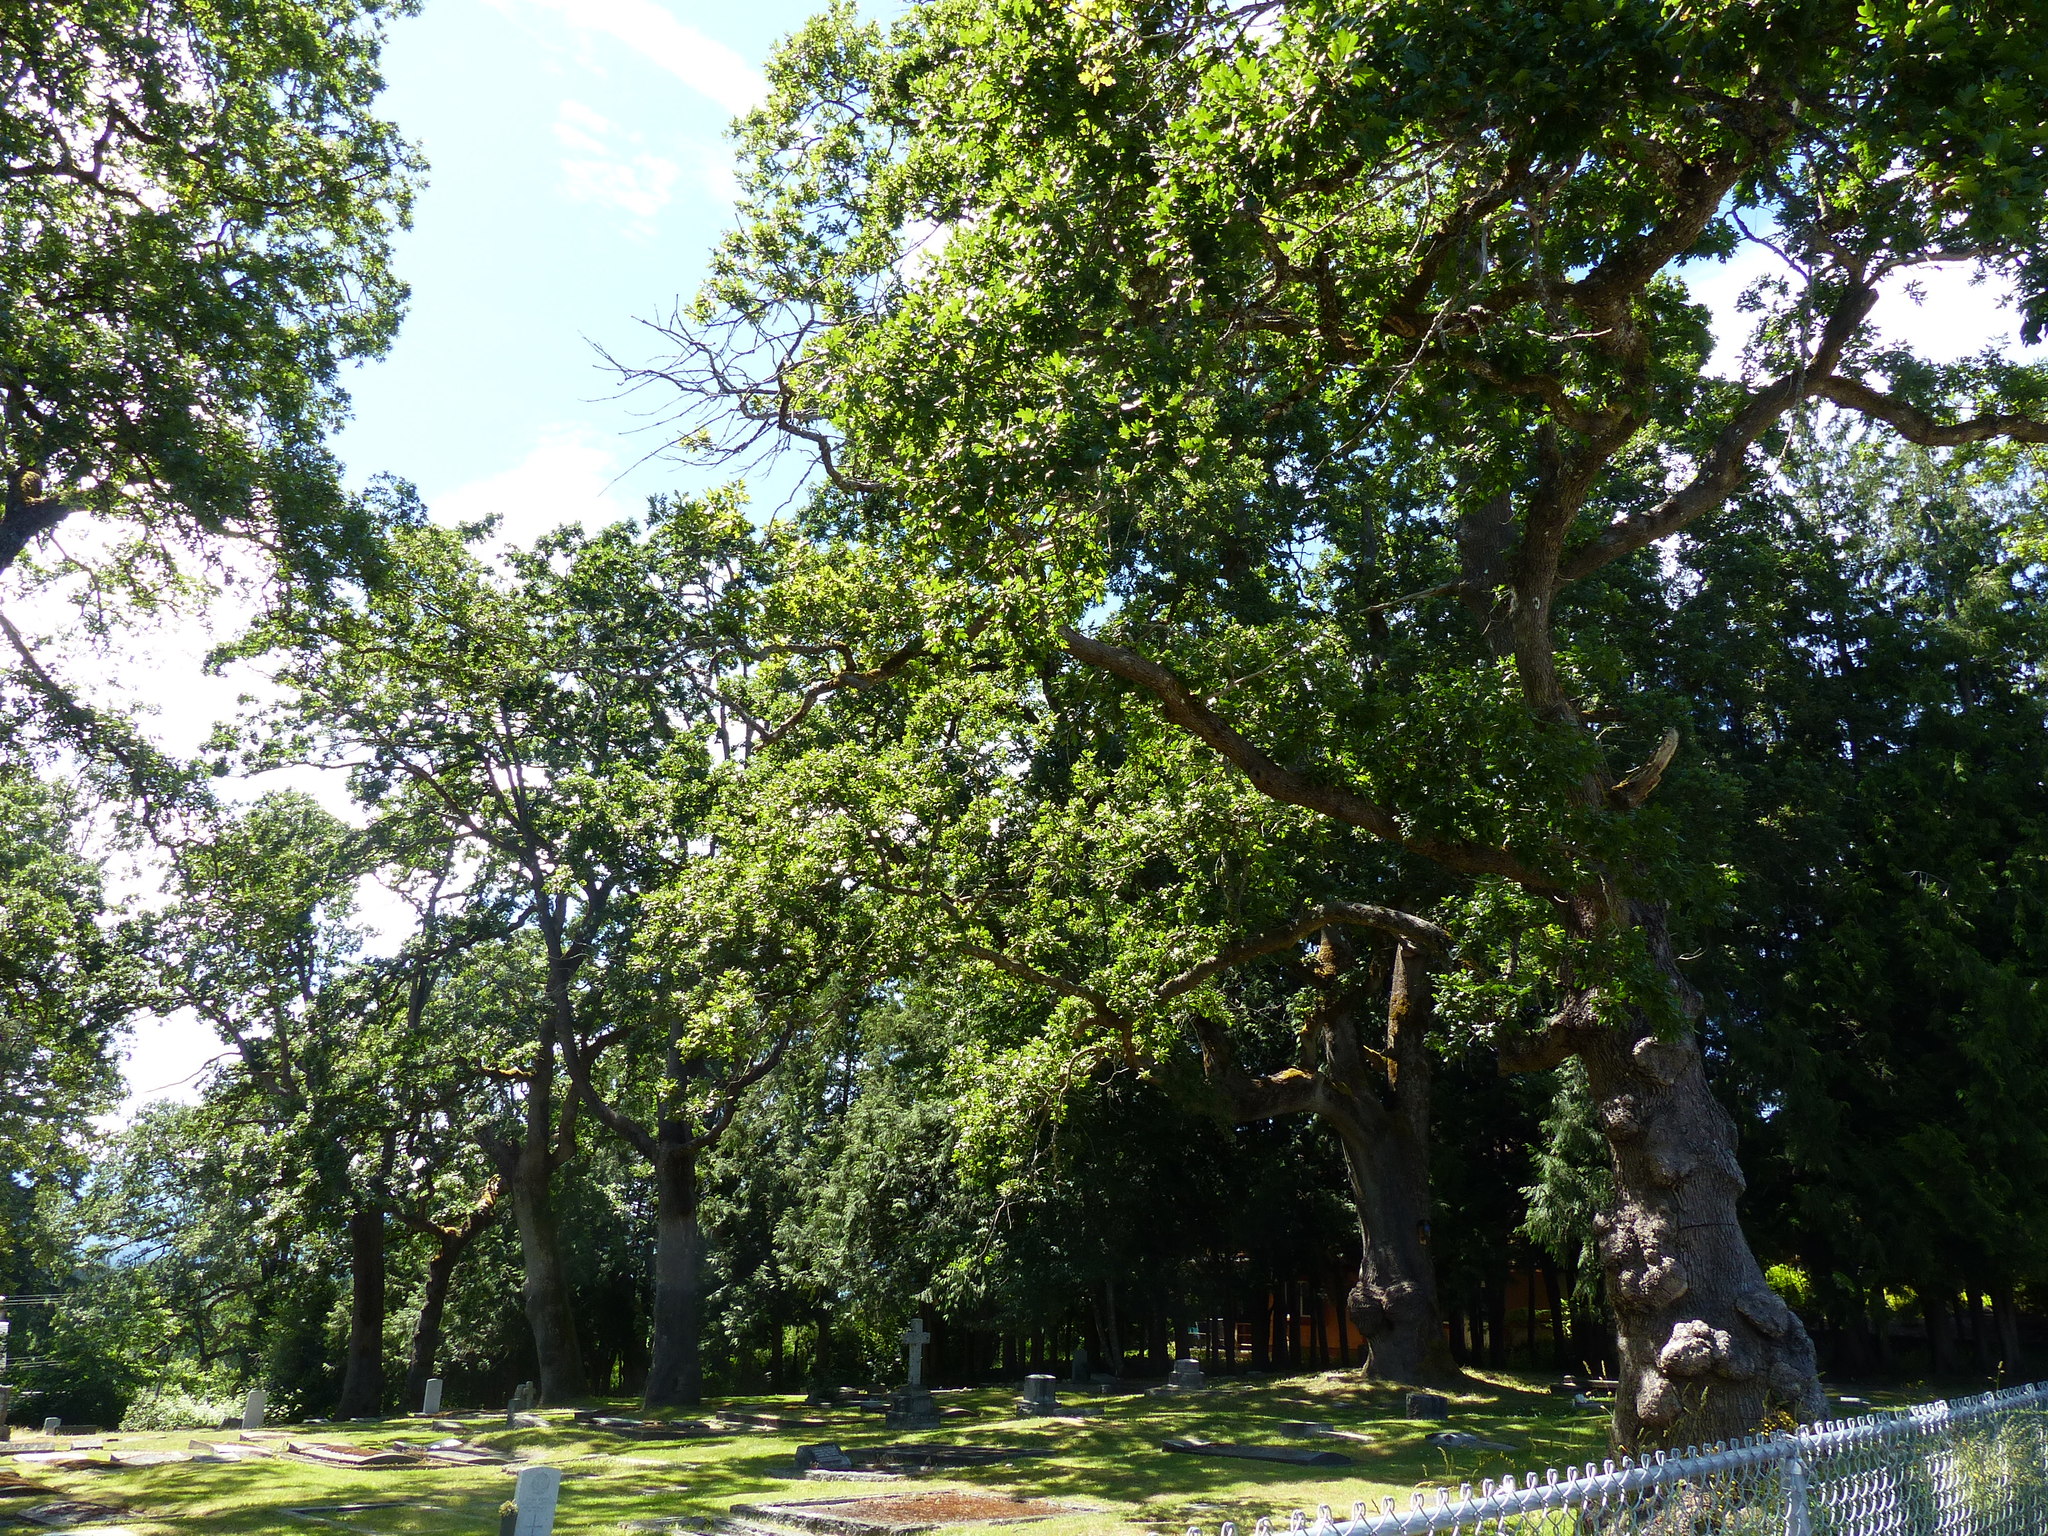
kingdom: Plantae
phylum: Tracheophyta
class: Magnoliopsida
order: Fagales
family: Fagaceae
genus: Quercus
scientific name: Quercus garryana
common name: Garry oak
